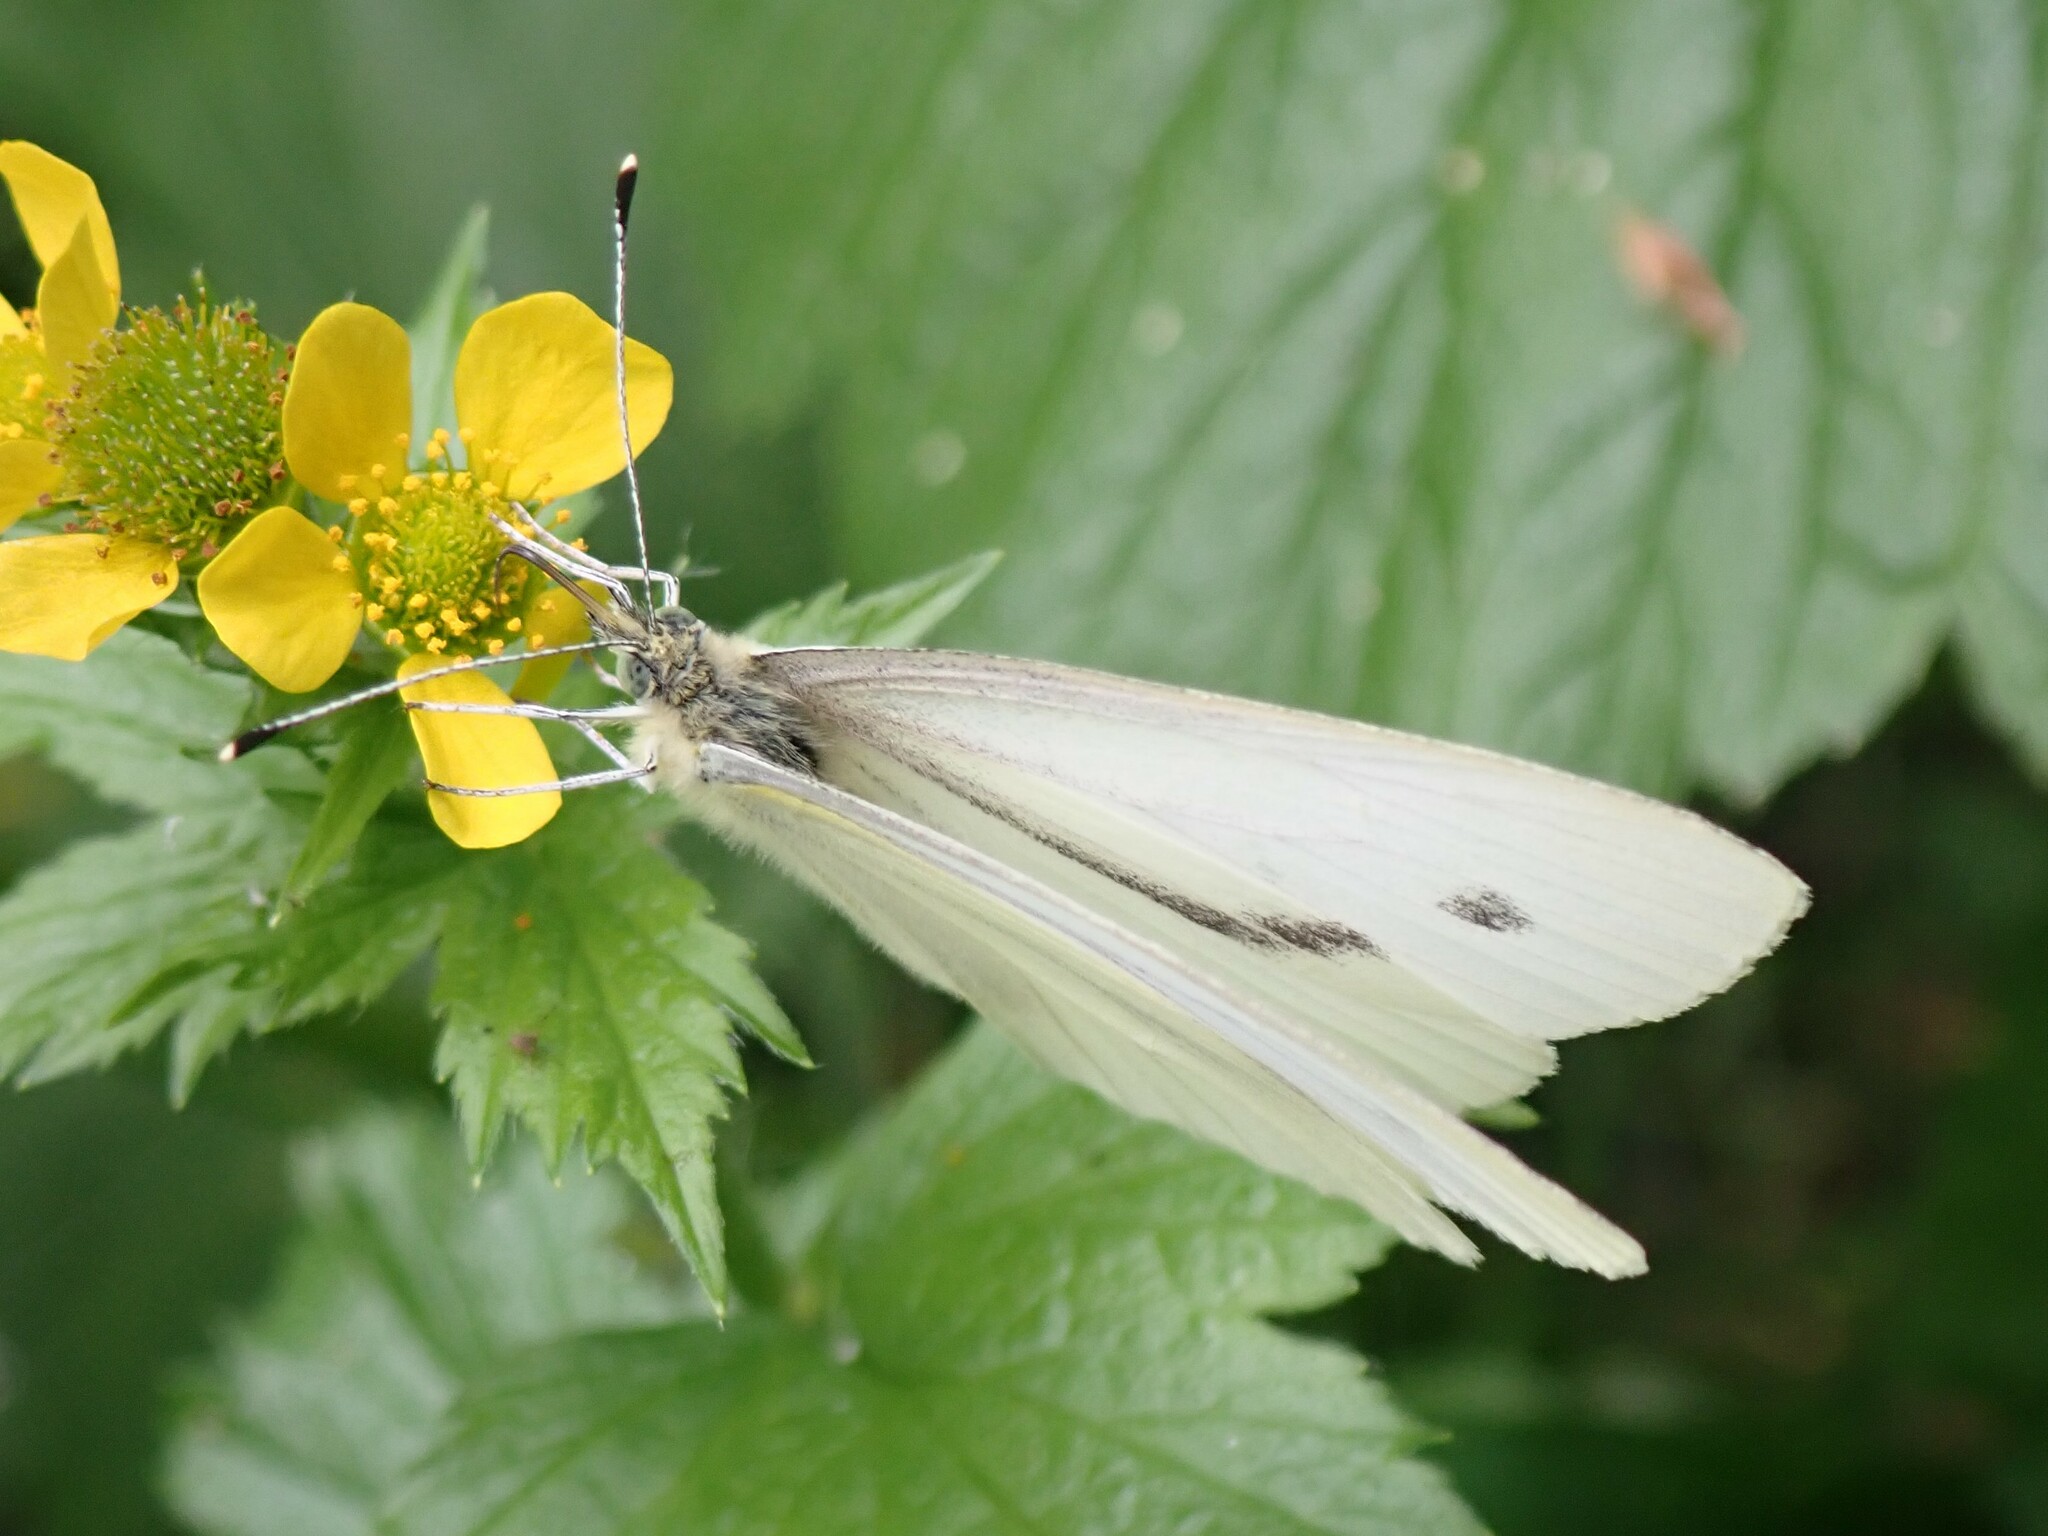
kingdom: Animalia
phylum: Arthropoda
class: Insecta
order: Lepidoptera
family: Pieridae
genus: Pieris
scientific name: Pieris rapae
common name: Small white
